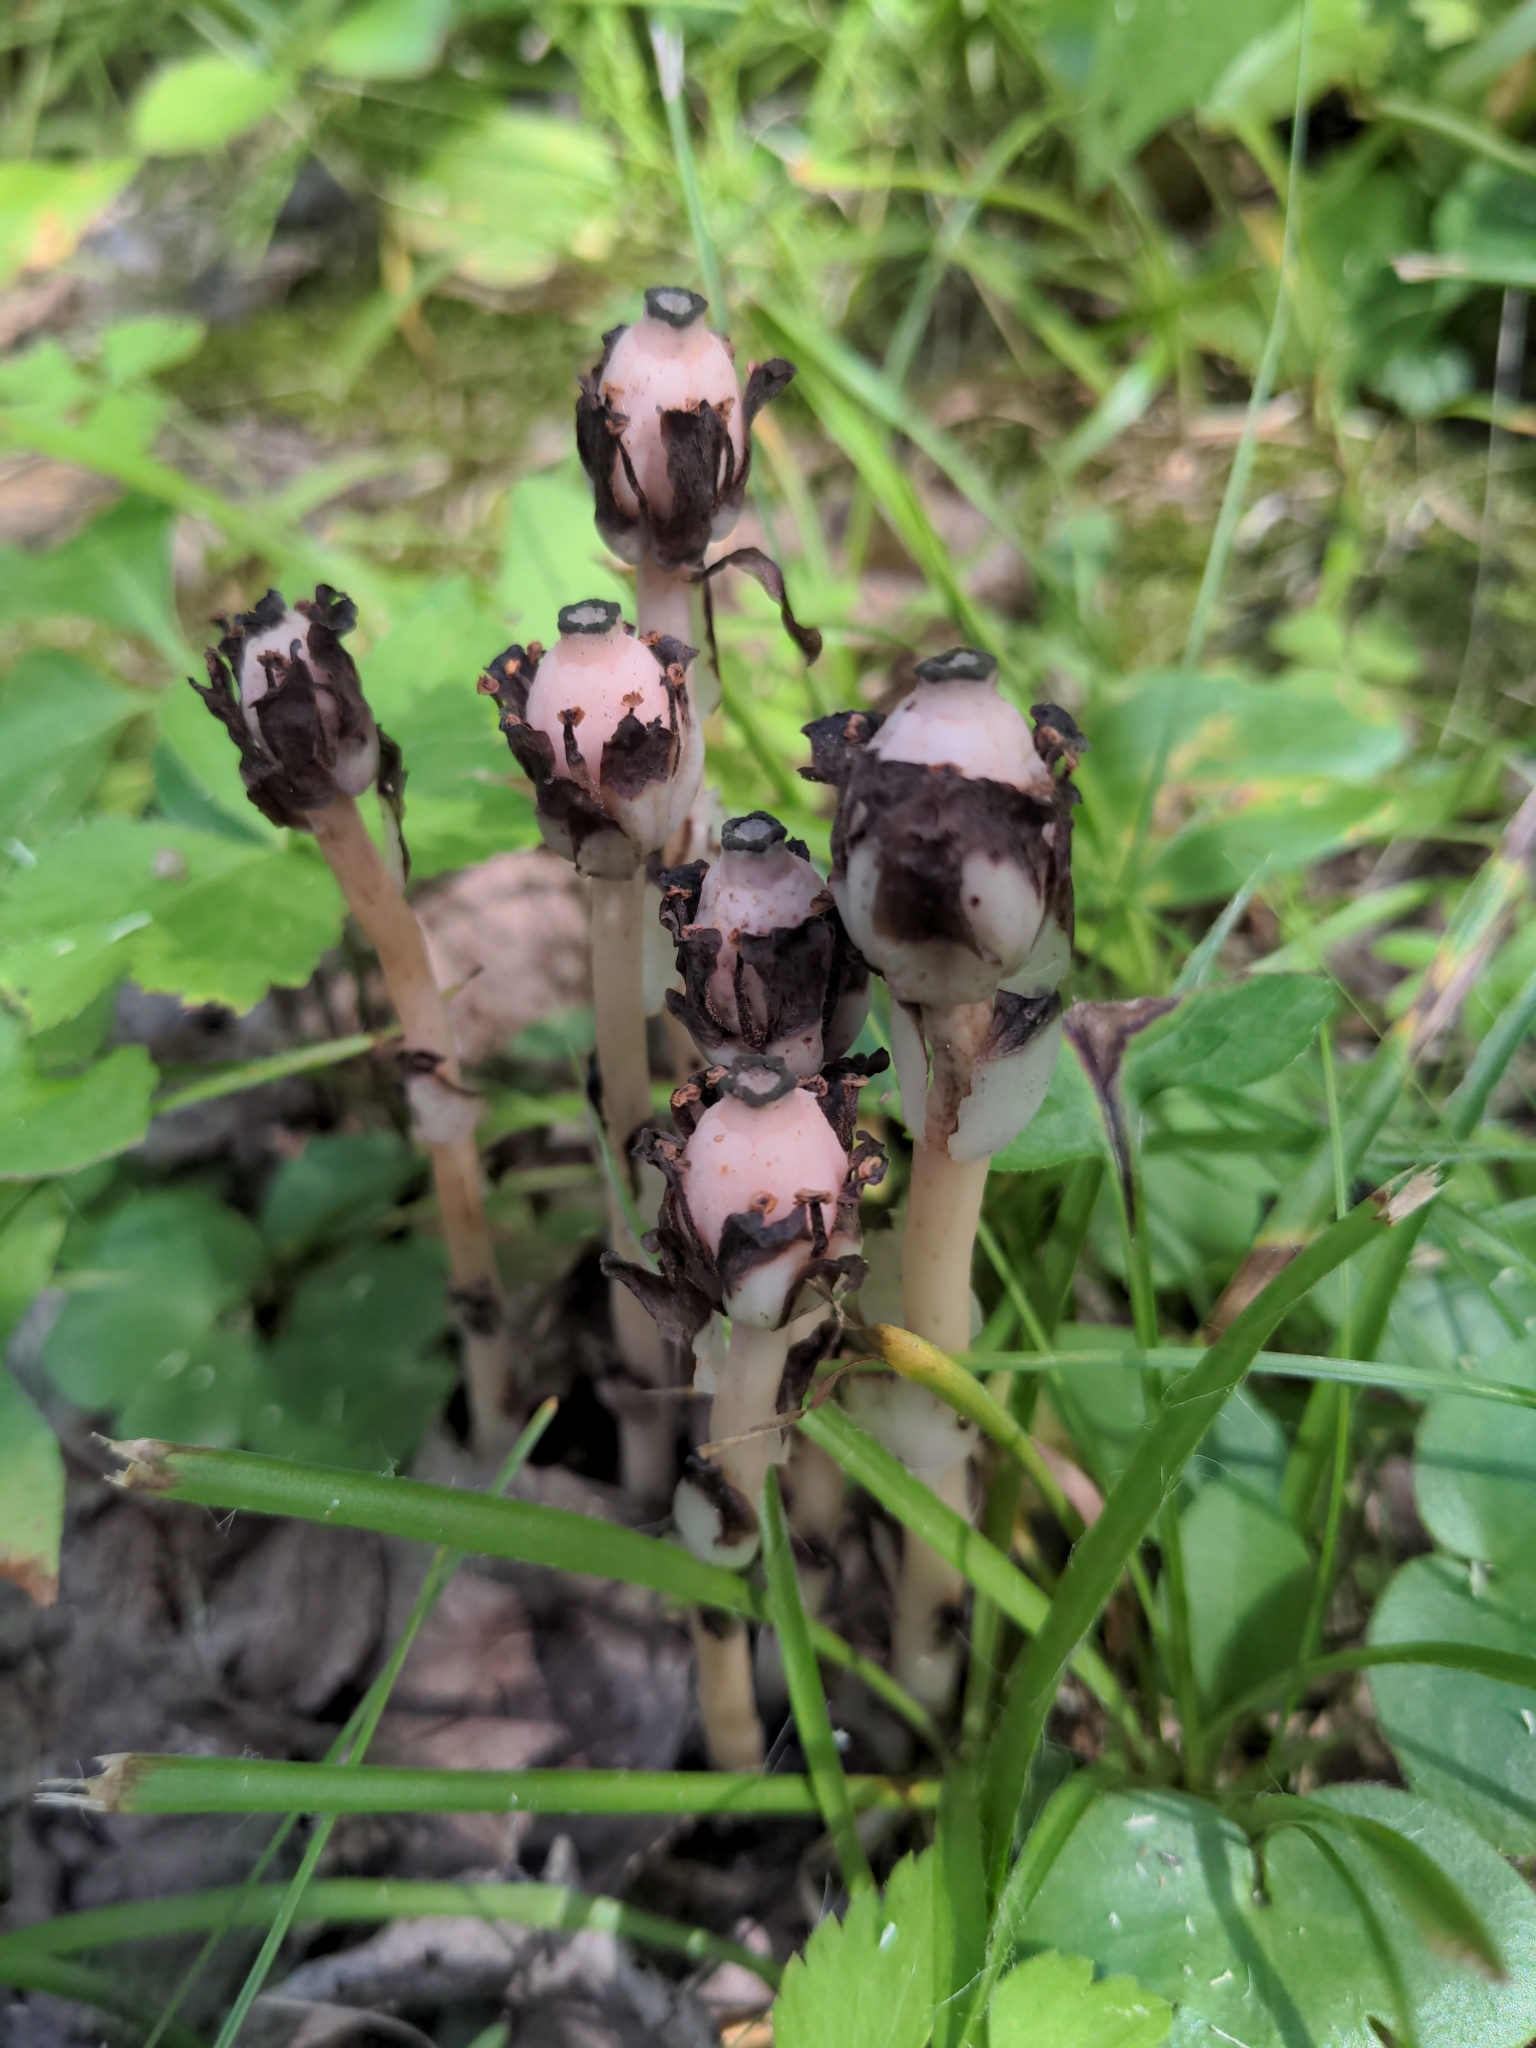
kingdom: Plantae
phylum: Tracheophyta
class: Magnoliopsida
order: Ericales
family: Ericaceae
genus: Monotropa
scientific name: Monotropa uniflora
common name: Convulsion root
